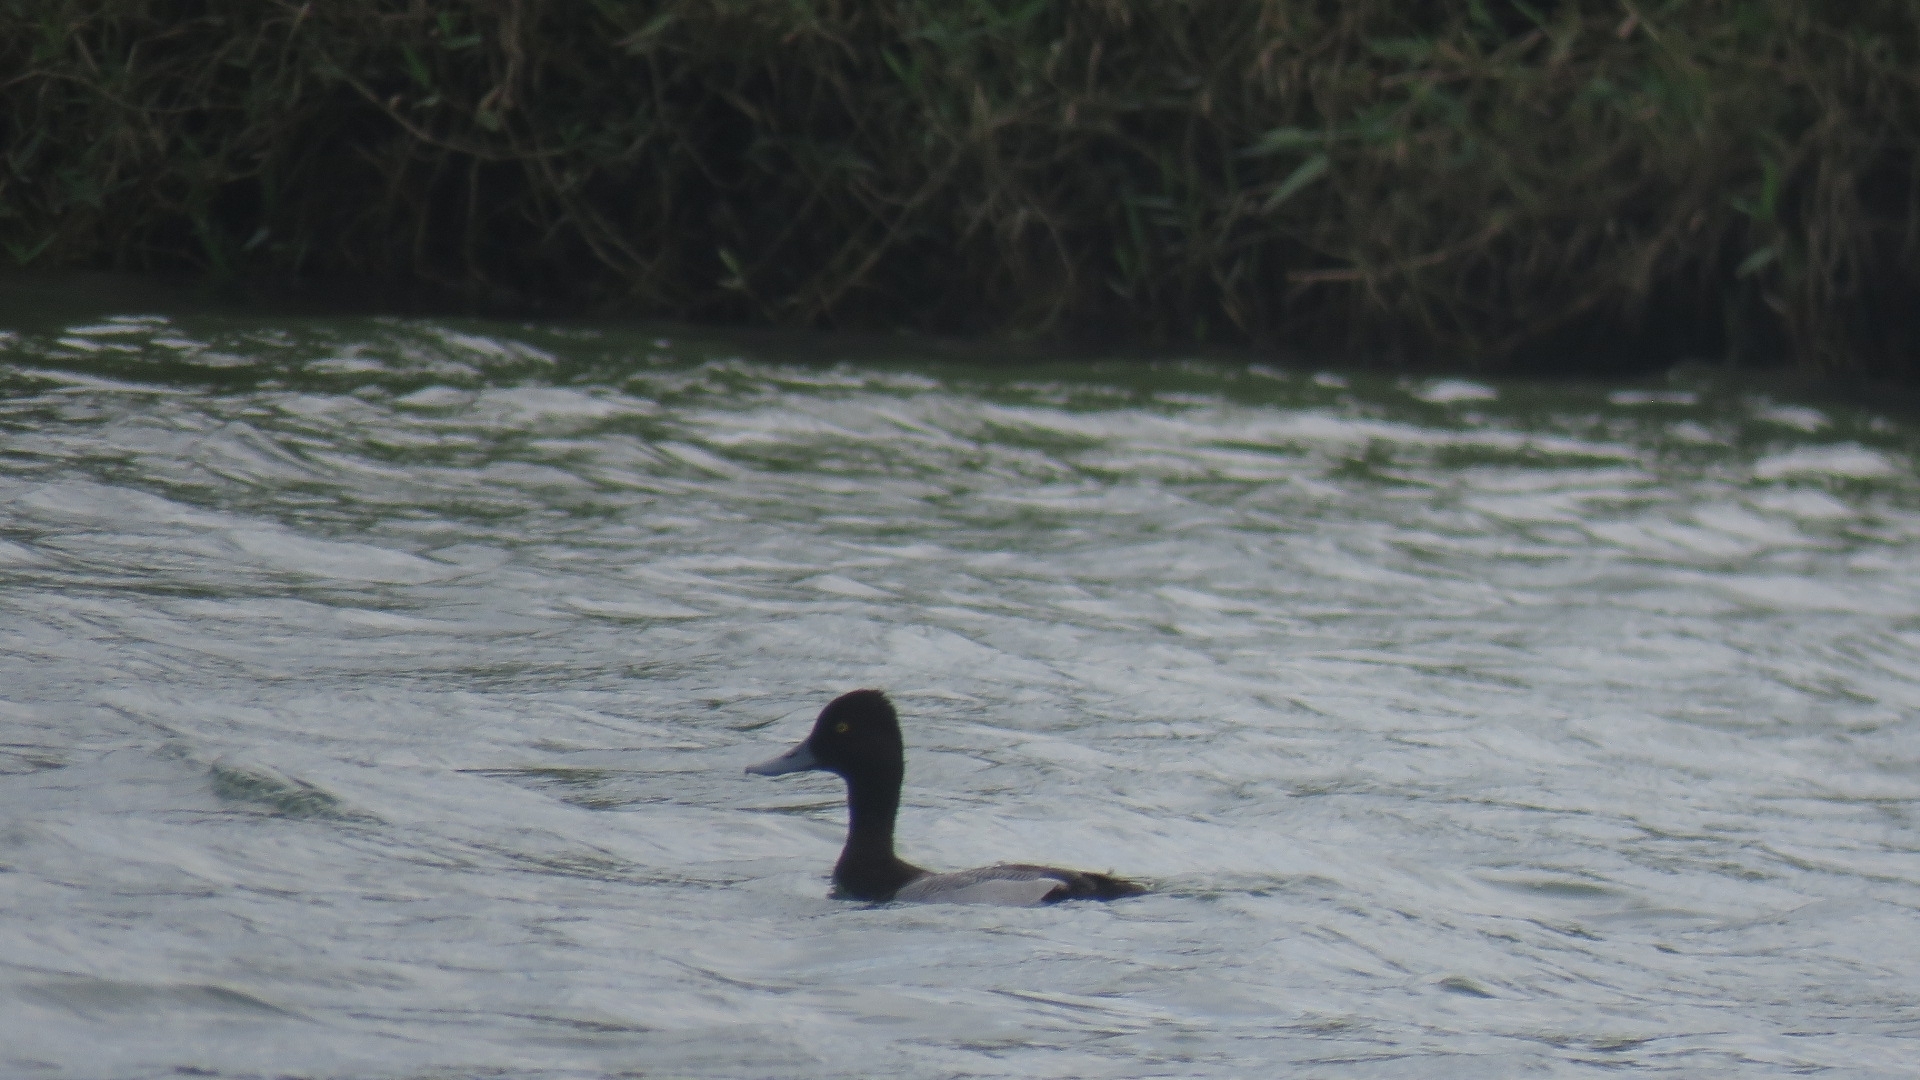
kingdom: Animalia
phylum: Chordata
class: Aves
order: Anseriformes
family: Anatidae
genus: Aythya
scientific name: Aythya affinis
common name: Lesser scaup
